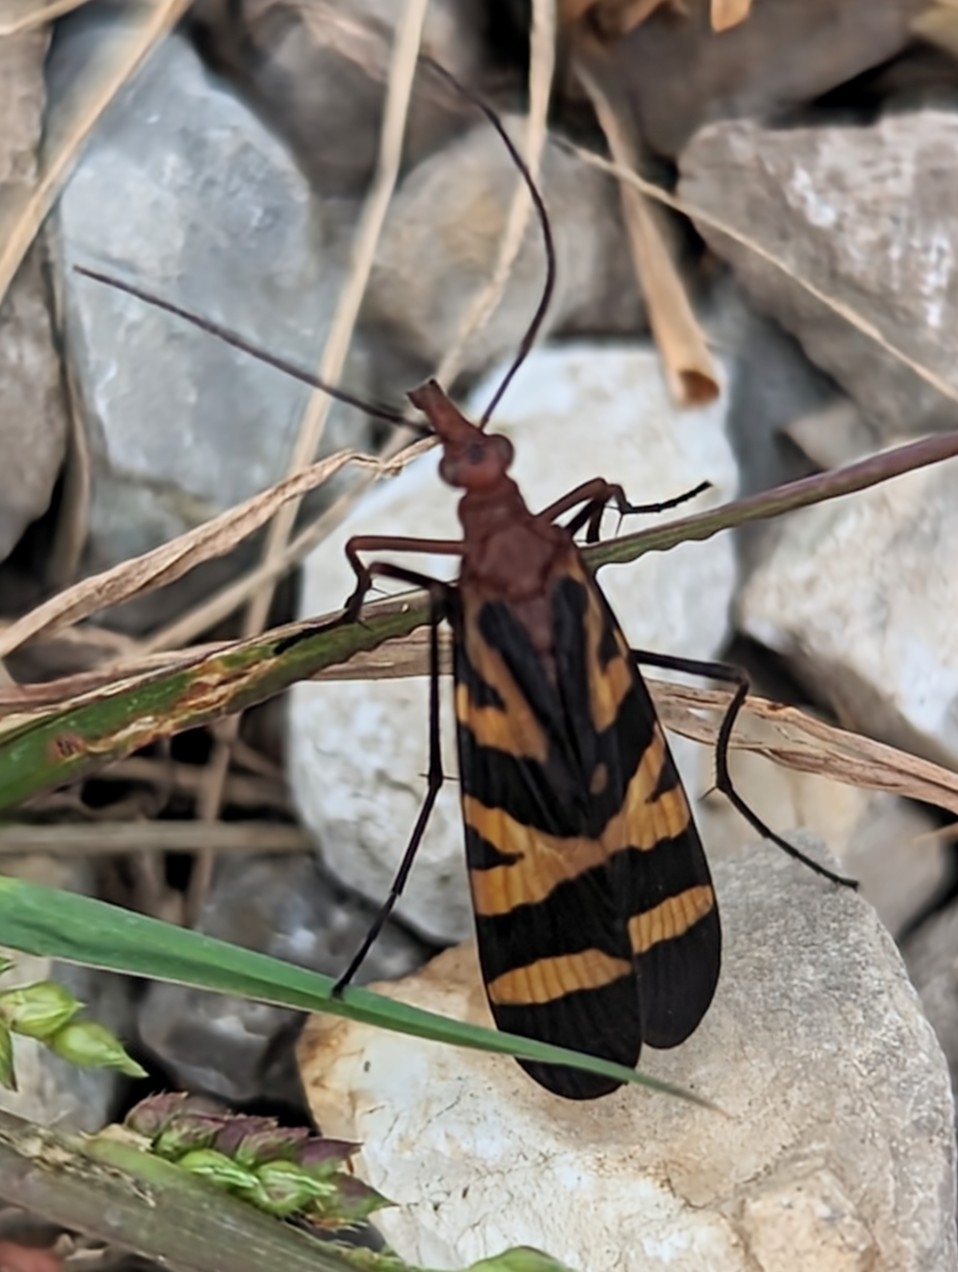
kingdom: Animalia
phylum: Arthropoda
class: Insecta
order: Mecoptera
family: Panorpidae
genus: Panorpa
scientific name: Panorpa nuptialis
